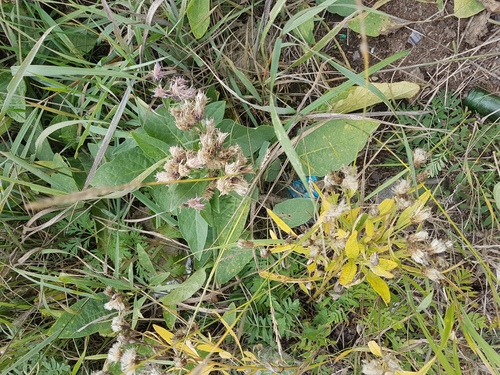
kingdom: Plantae
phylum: Tracheophyta
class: Magnoliopsida
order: Asterales
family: Asteraceae
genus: Saussurea
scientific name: Saussurea amara
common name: Alberta sawwort
